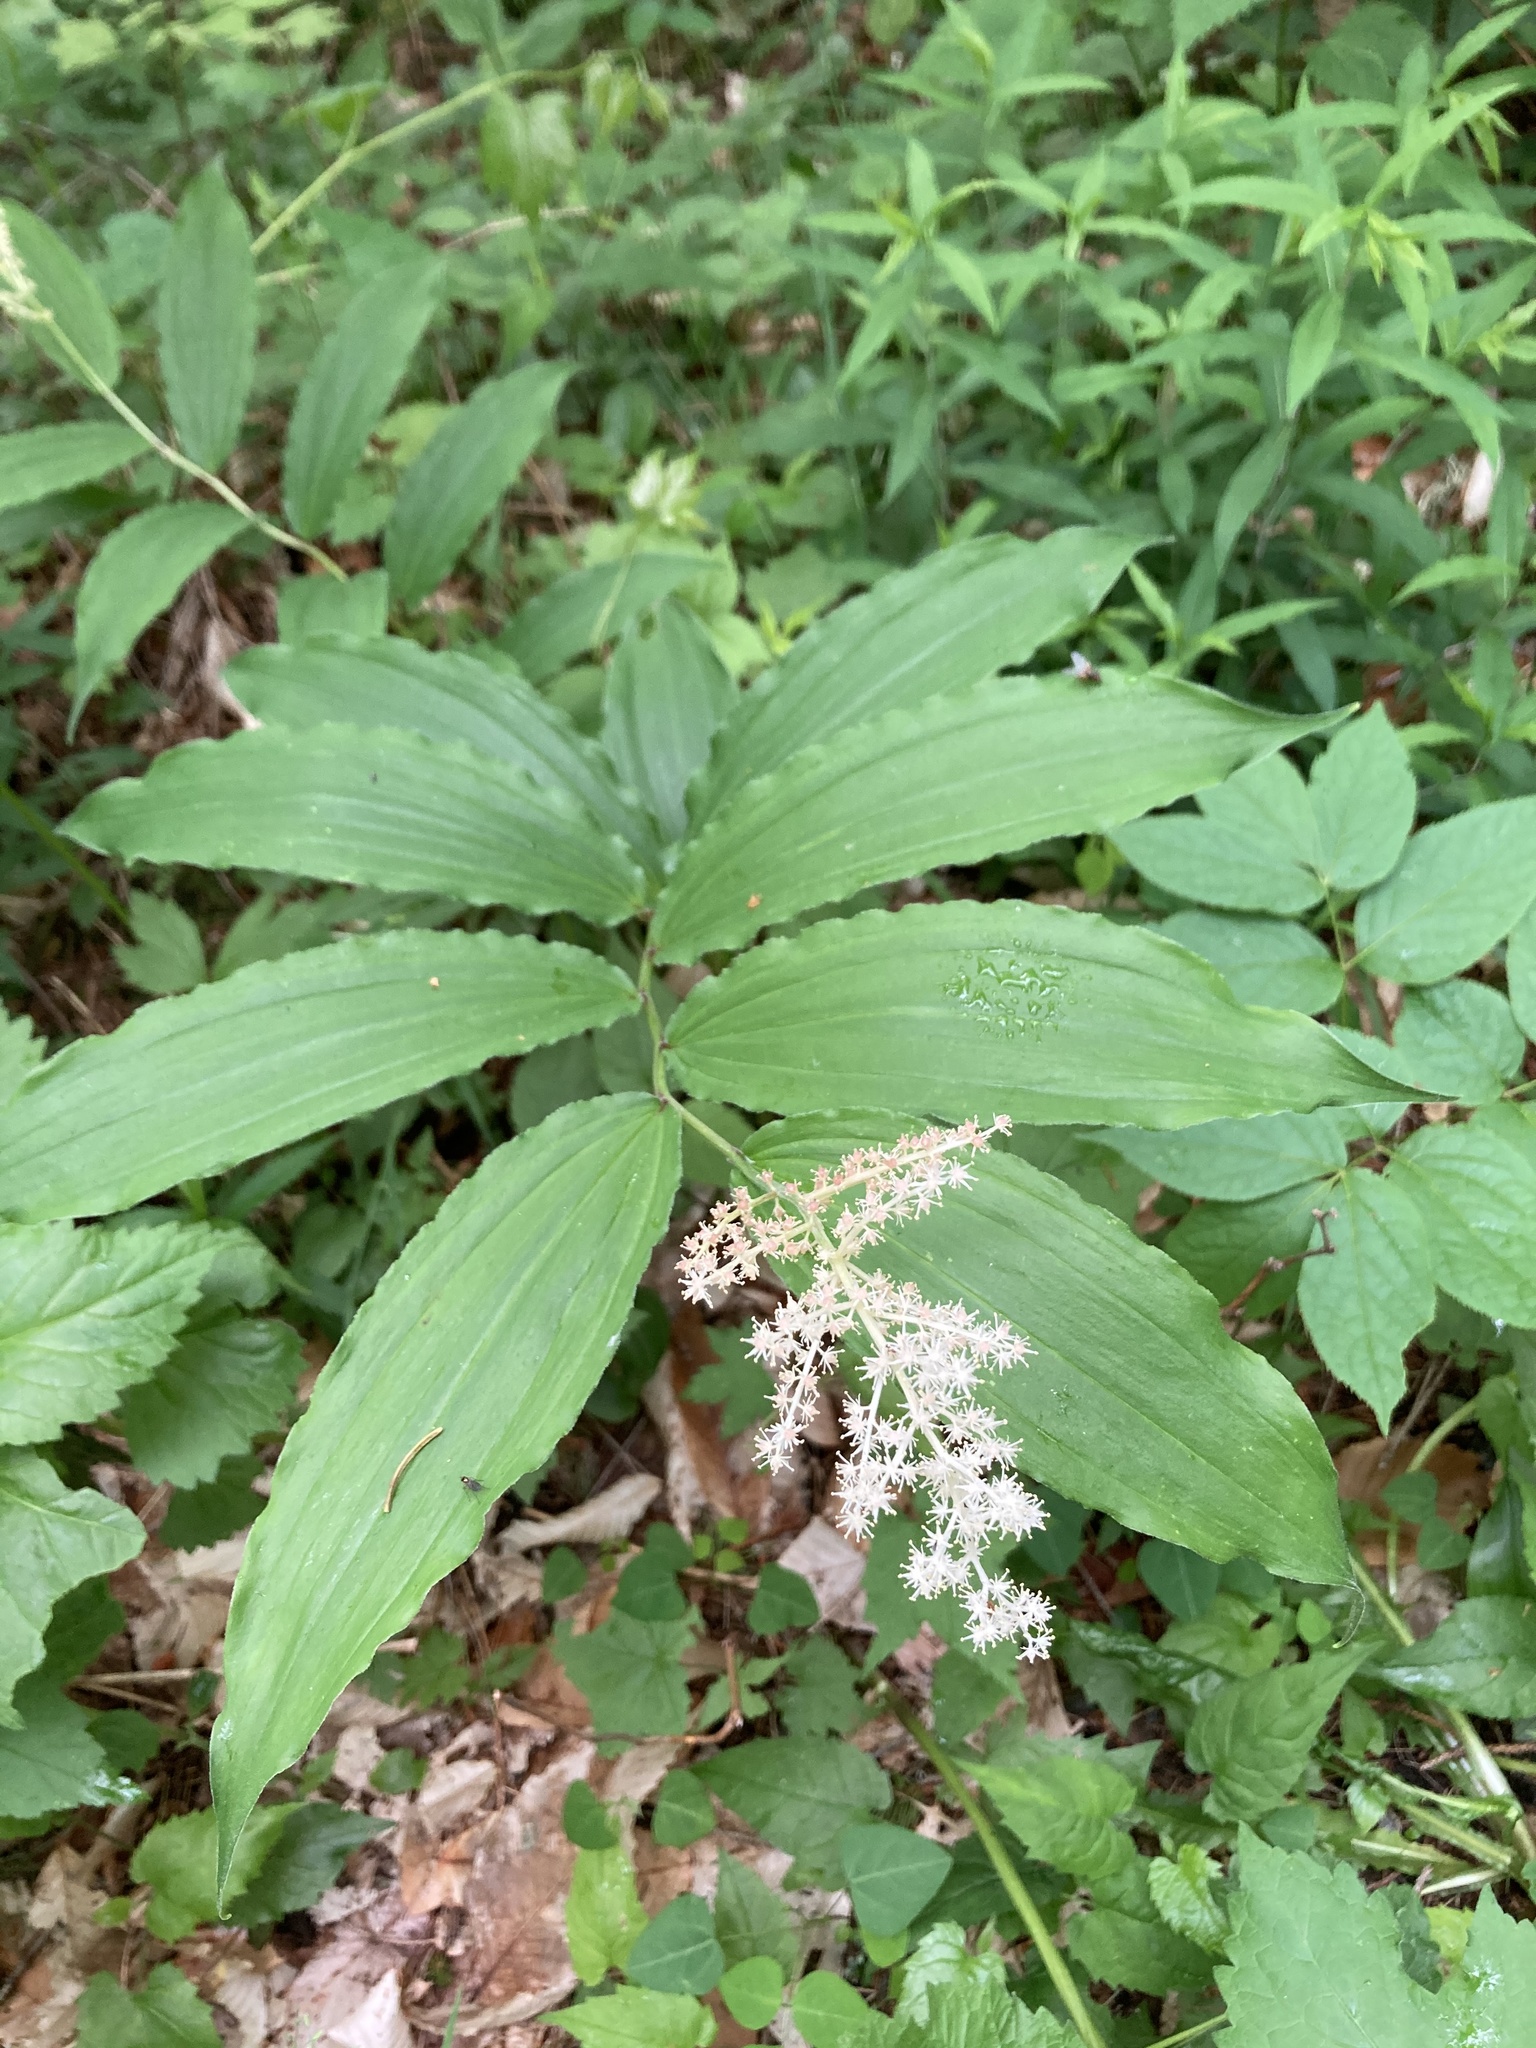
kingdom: Plantae
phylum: Tracheophyta
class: Liliopsida
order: Asparagales
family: Asparagaceae
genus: Maianthemum
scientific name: Maianthemum racemosum
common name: False spikenard
